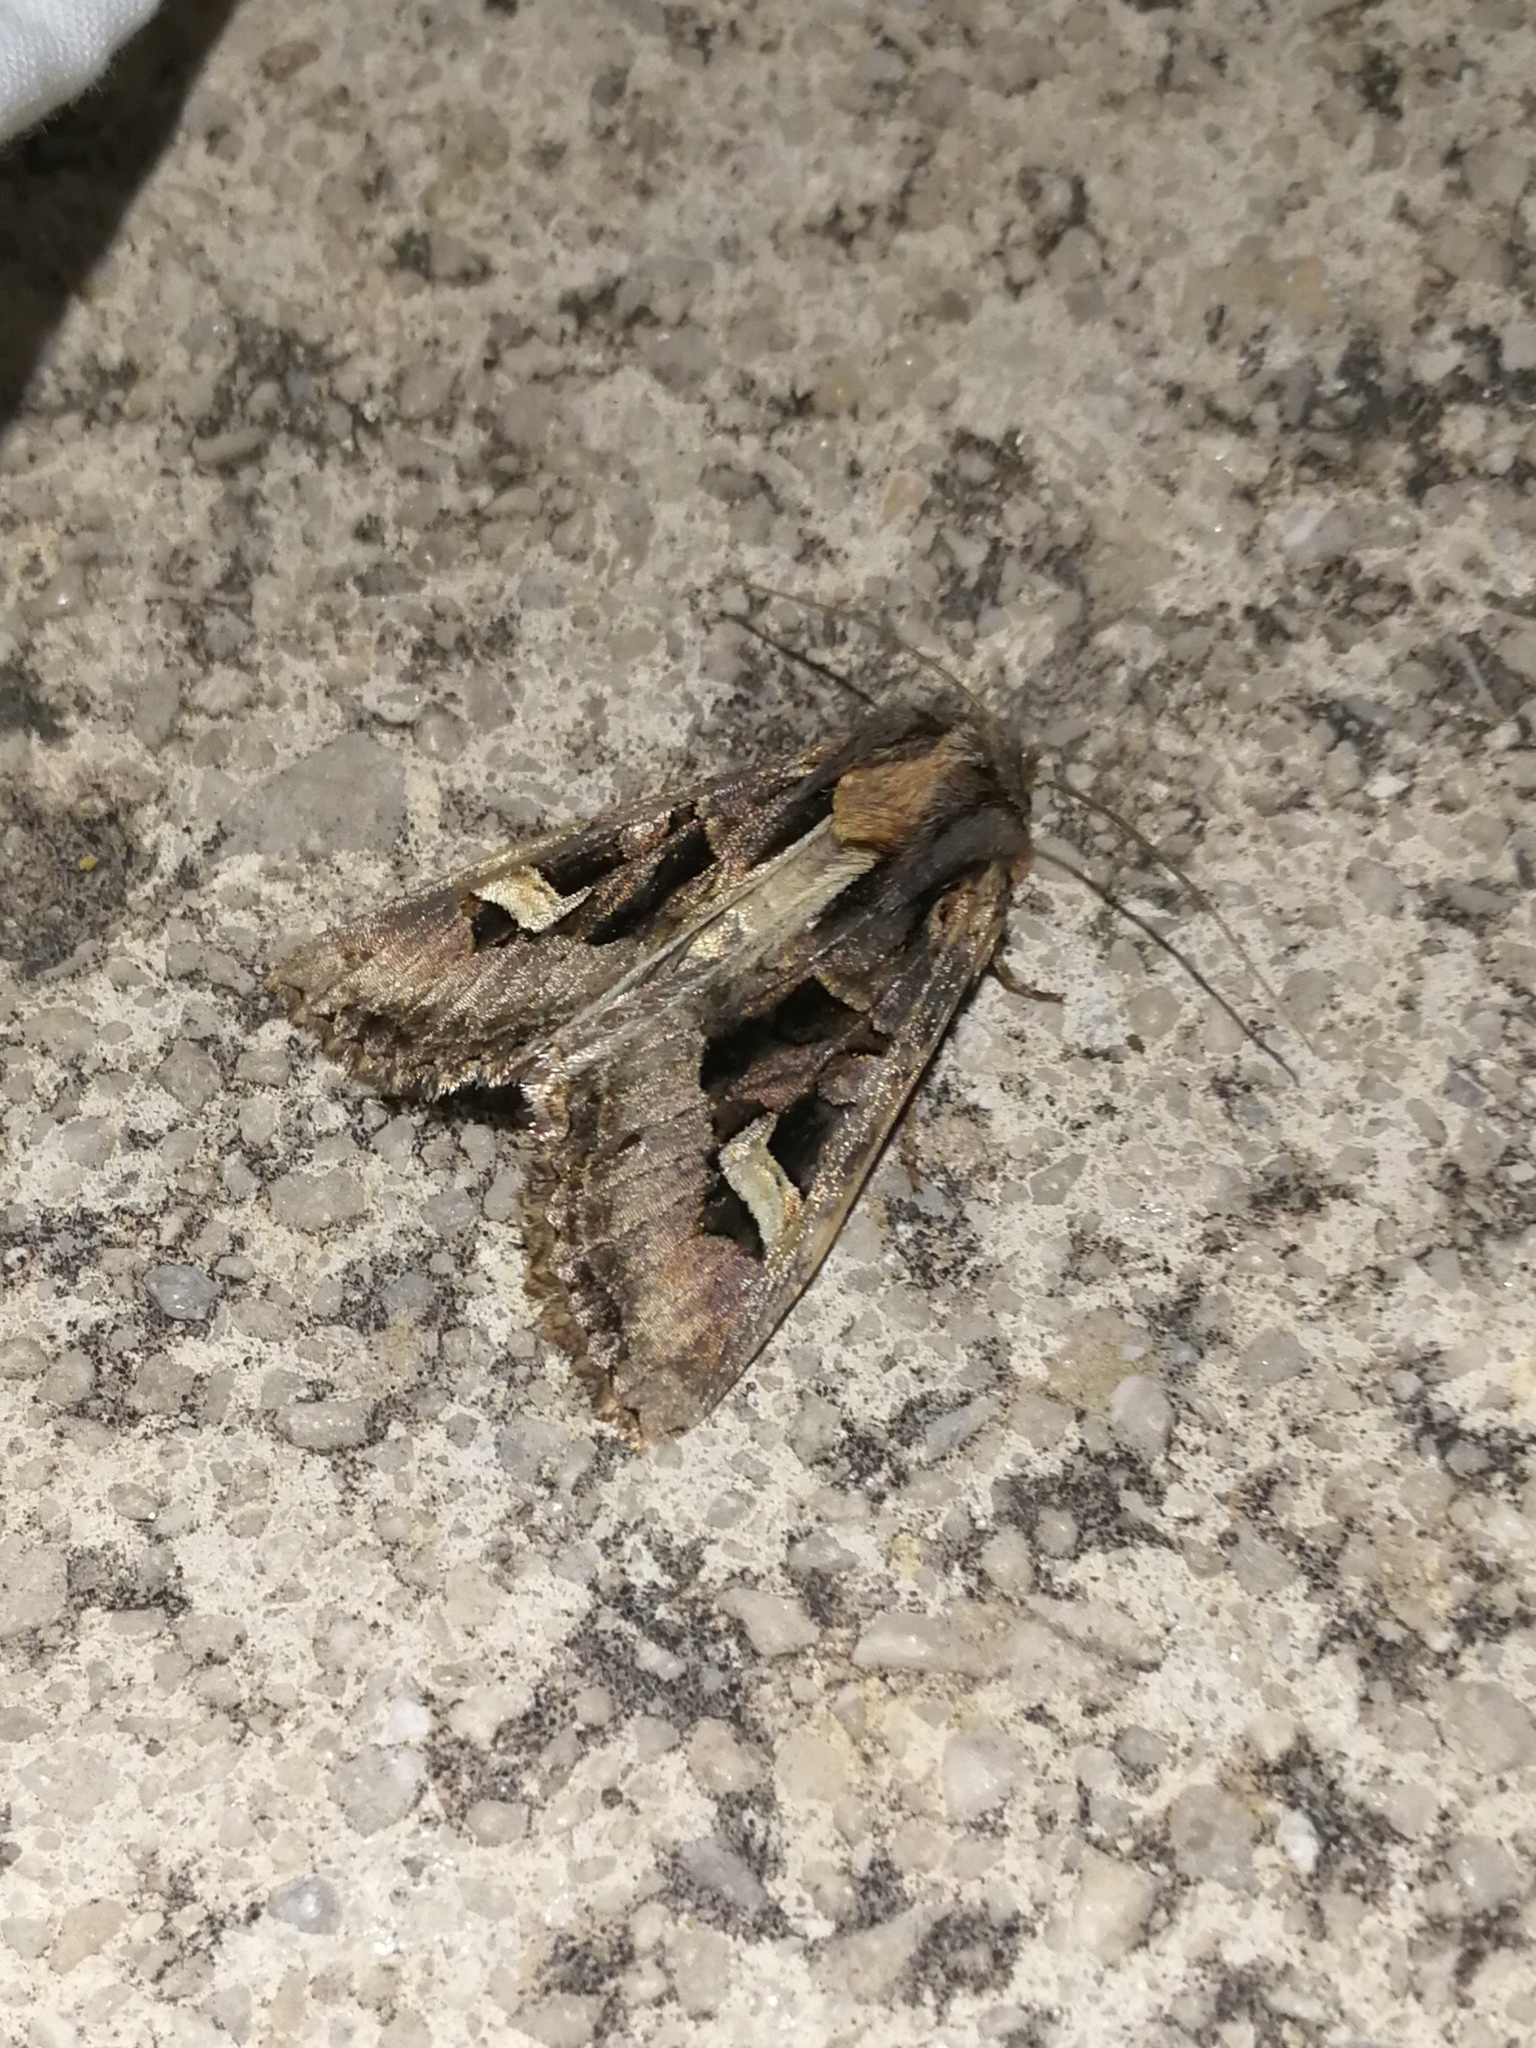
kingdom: Animalia
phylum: Arthropoda
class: Insecta
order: Lepidoptera
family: Noctuidae
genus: Trigonophora
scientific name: Trigonophora flammea
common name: Flame brocade
